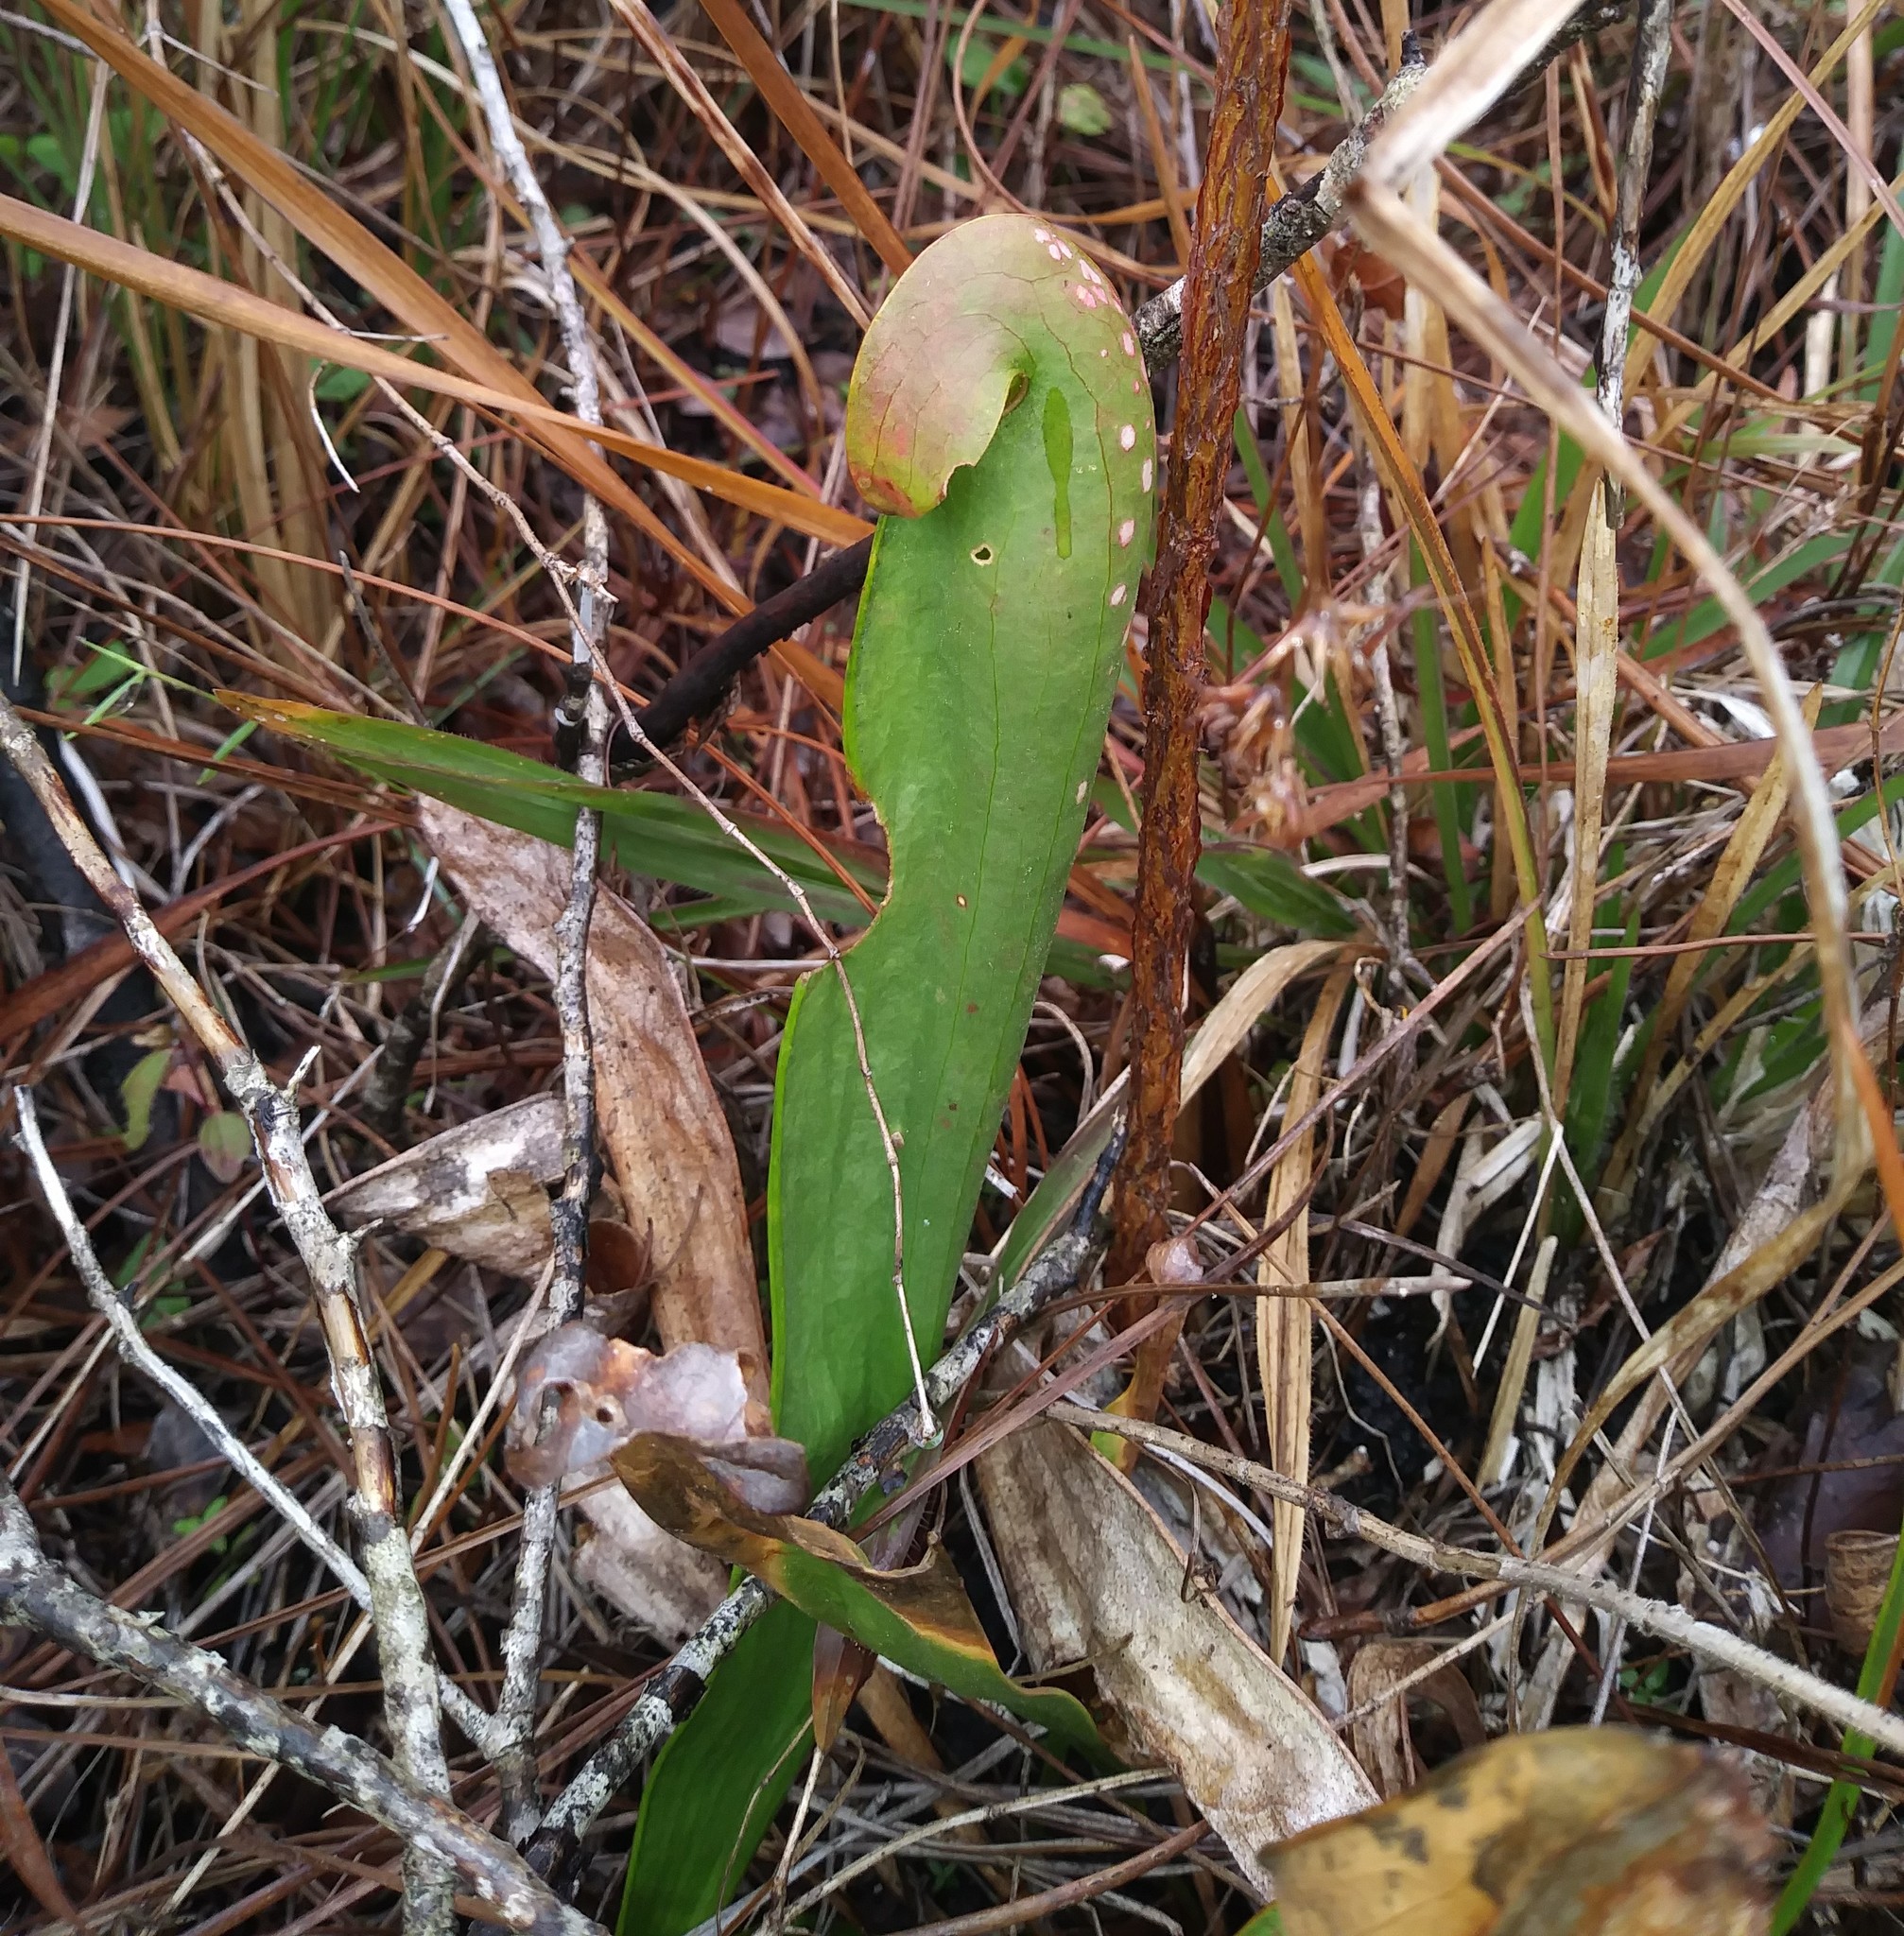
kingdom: Plantae
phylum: Tracheophyta
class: Magnoliopsida
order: Ericales
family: Sarraceniaceae
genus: Sarracenia
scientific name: Sarracenia minor
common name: Rainhat-trumpet
